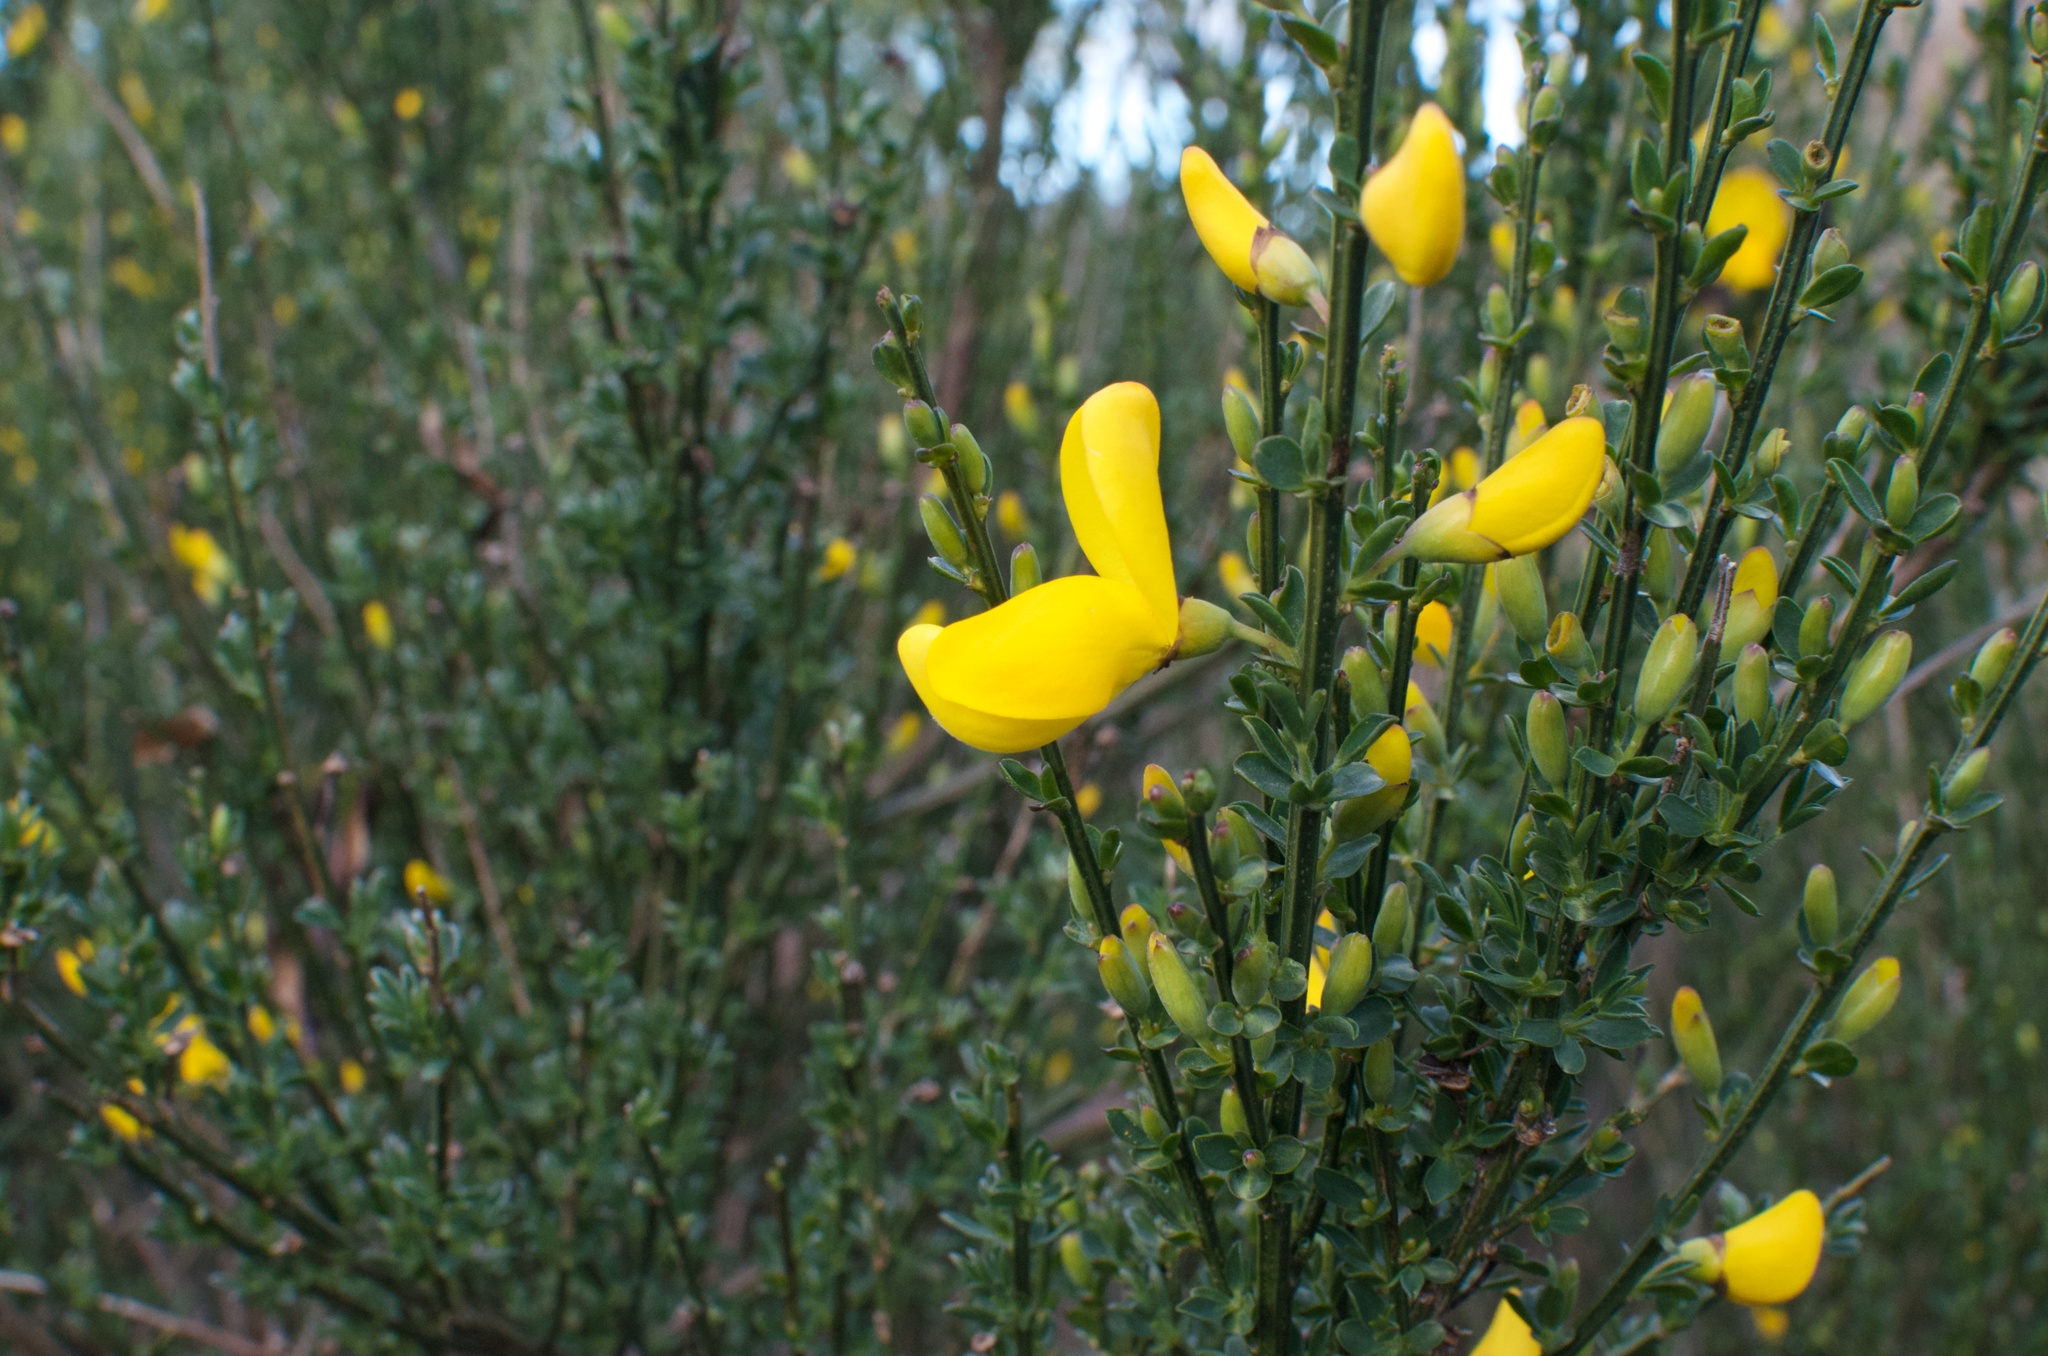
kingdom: Plantae
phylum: Tracheophyta
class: Magnoliopsida
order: Fabales
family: Fabaceae
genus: Cytisus
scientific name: Cytisus scoparius
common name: Scotch broom
